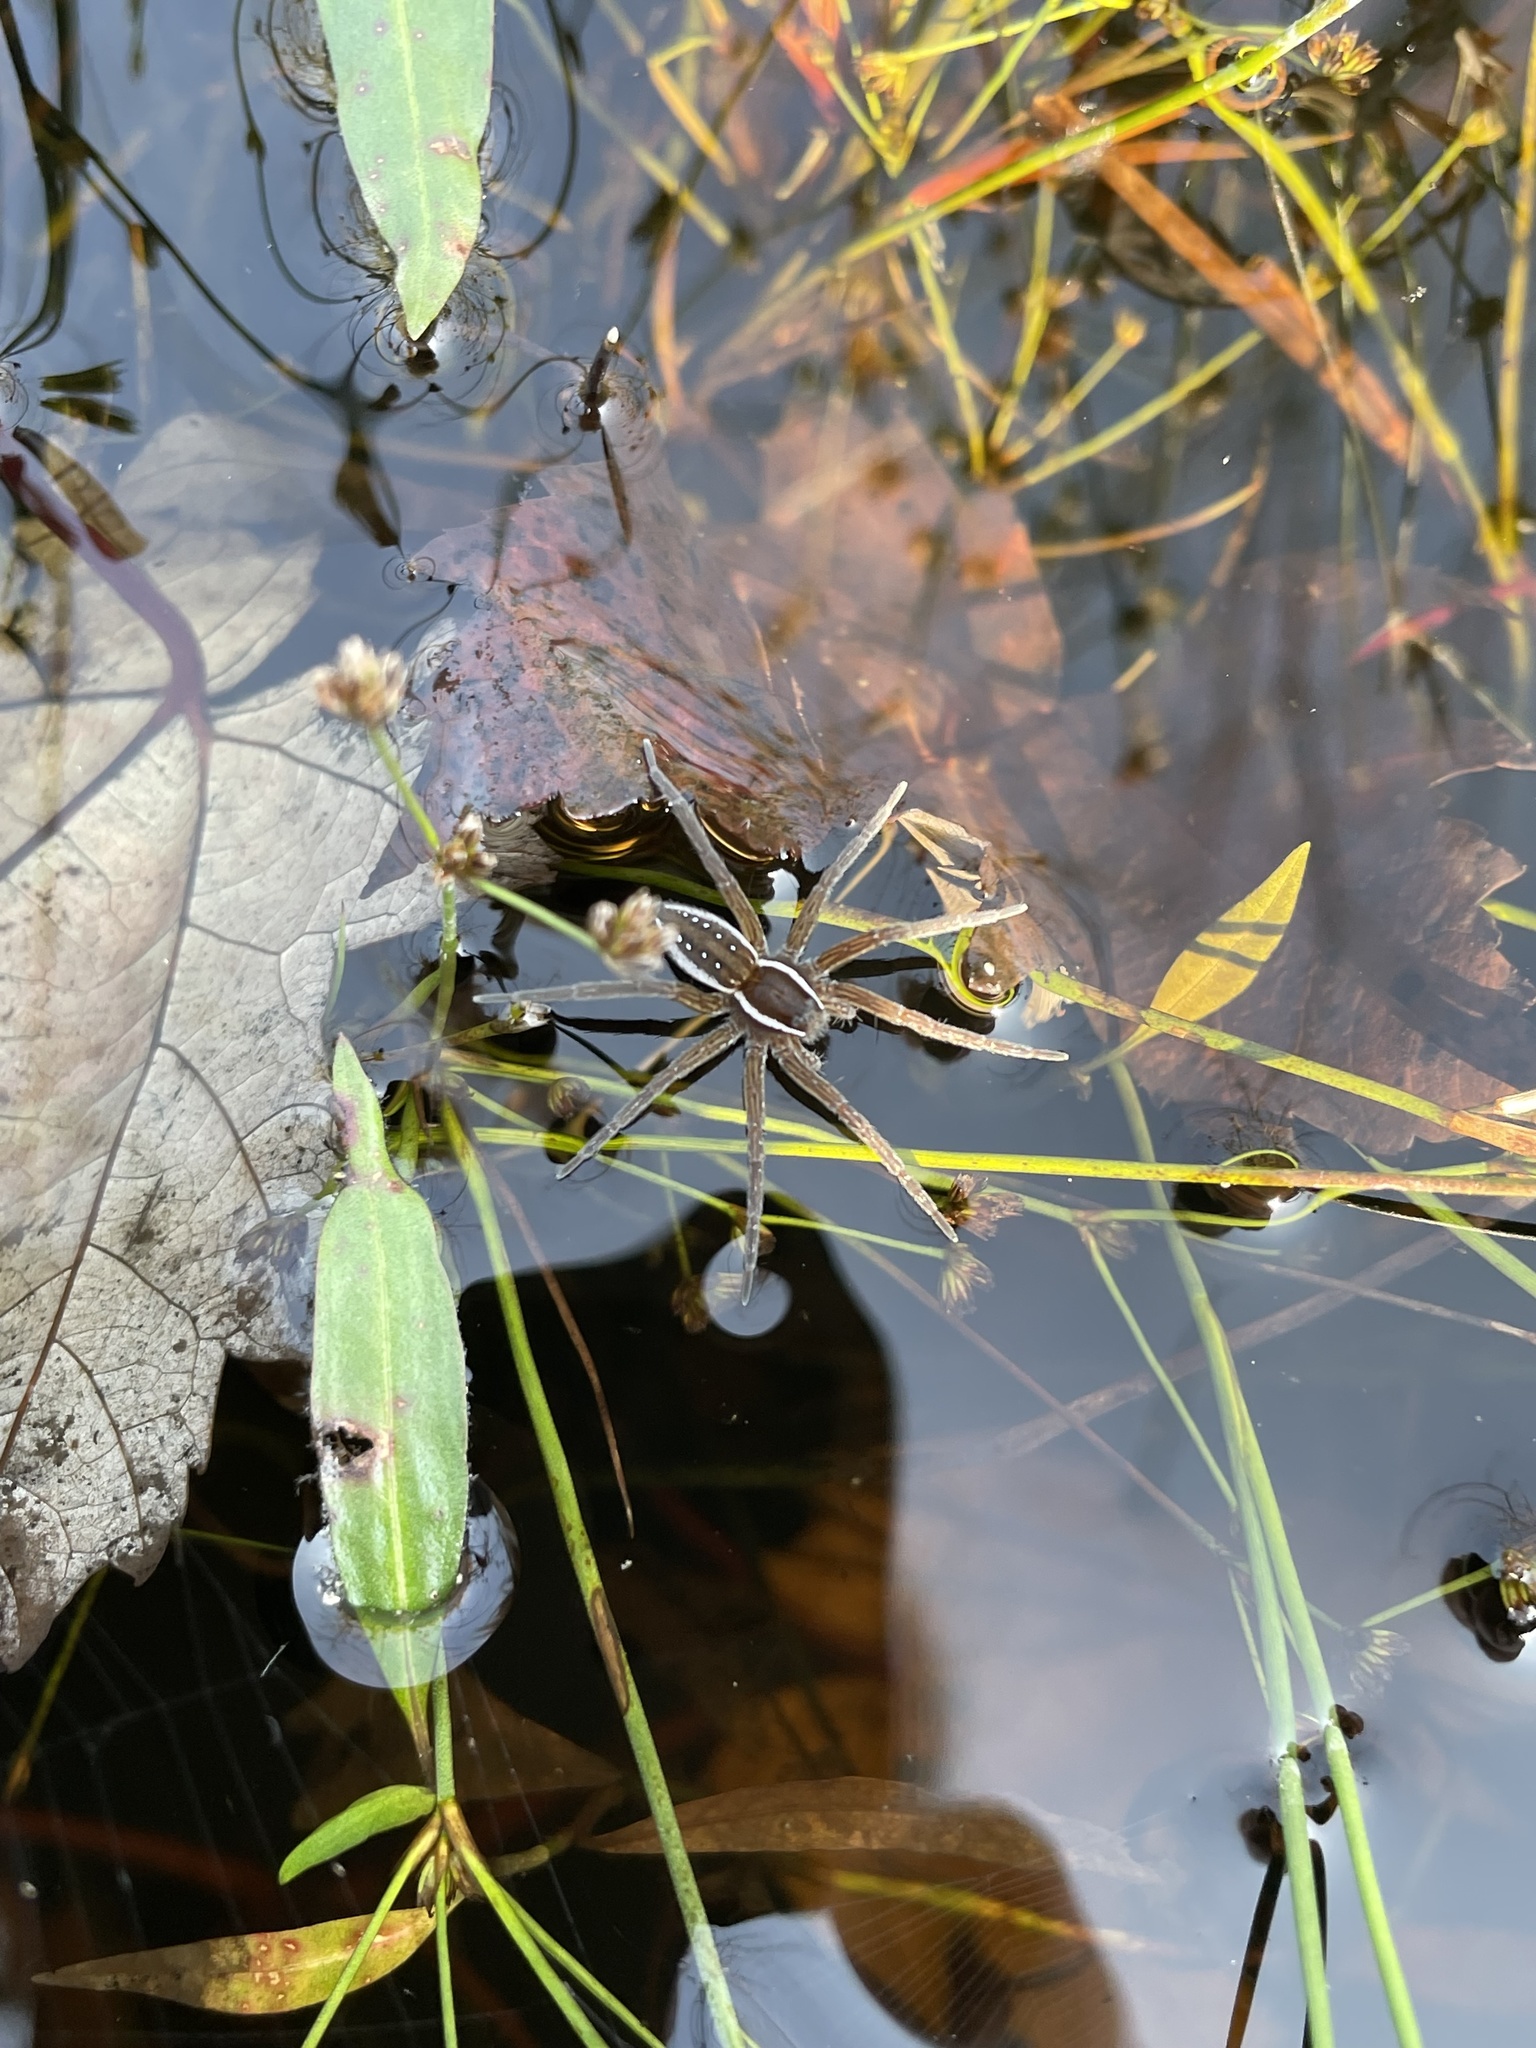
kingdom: Animalia
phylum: Arthropoda
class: Arachnida
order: Araneae
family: Pisauridae
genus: Dolomedes
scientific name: Dolomedes triton
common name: Six-spotted fishing spider
